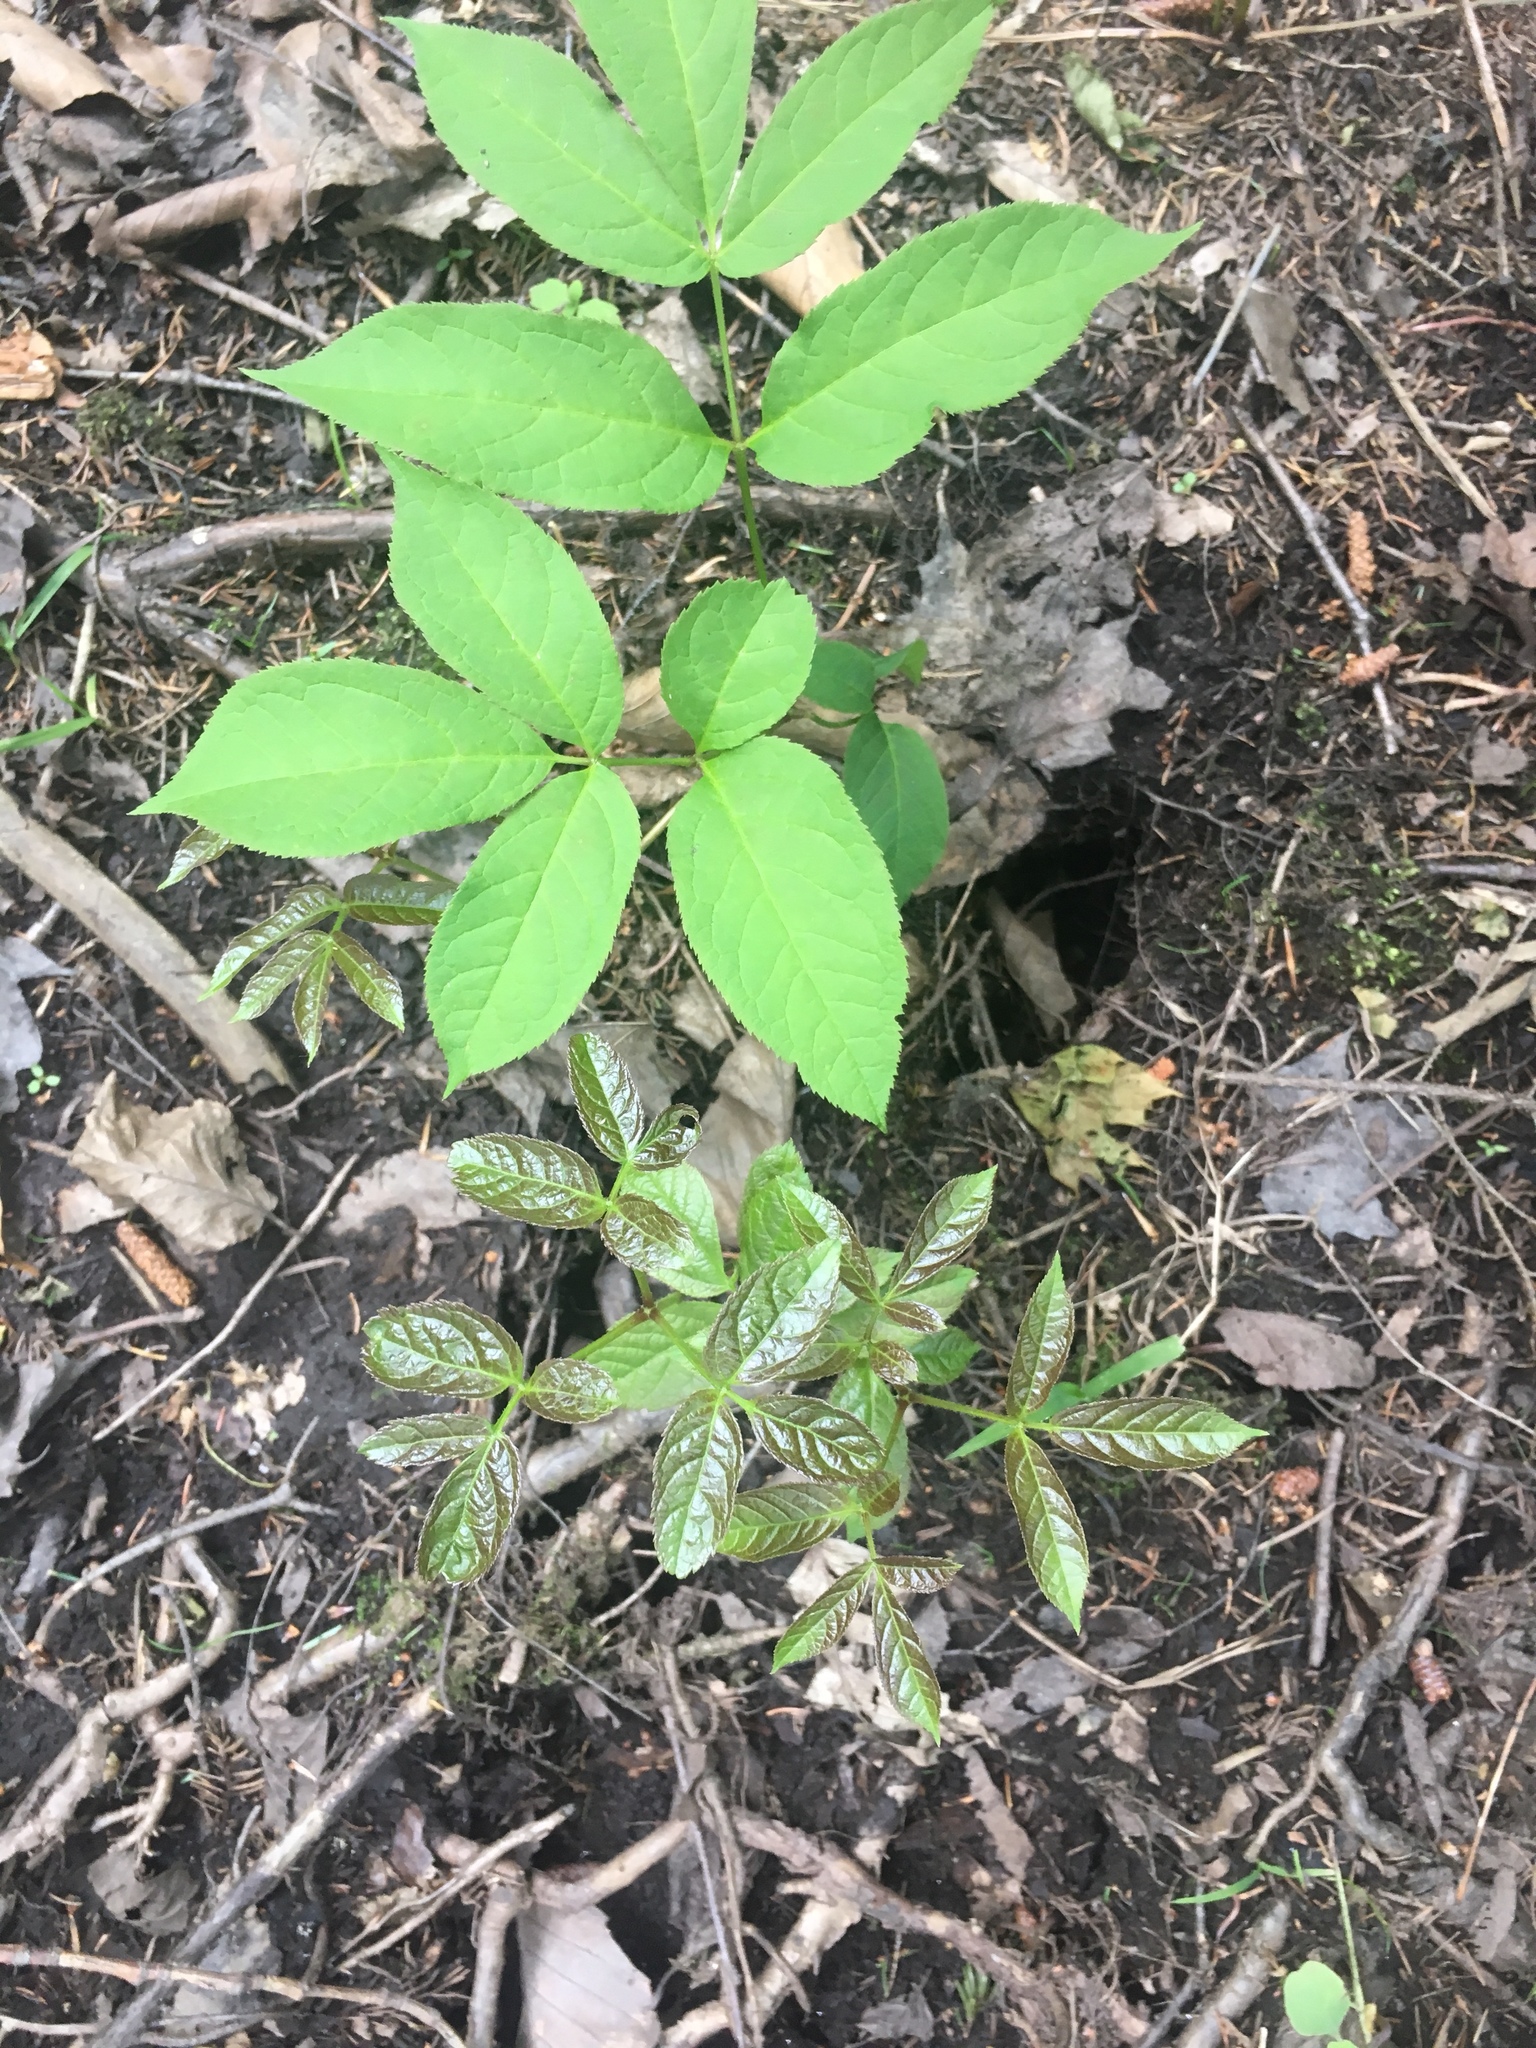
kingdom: Plantae
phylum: Tracheophyta
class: Magnoliopsida
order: Apiales
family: Araliaceae
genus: Aralia
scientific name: Aralia nudicaulis
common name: Wild sarsaparilla
